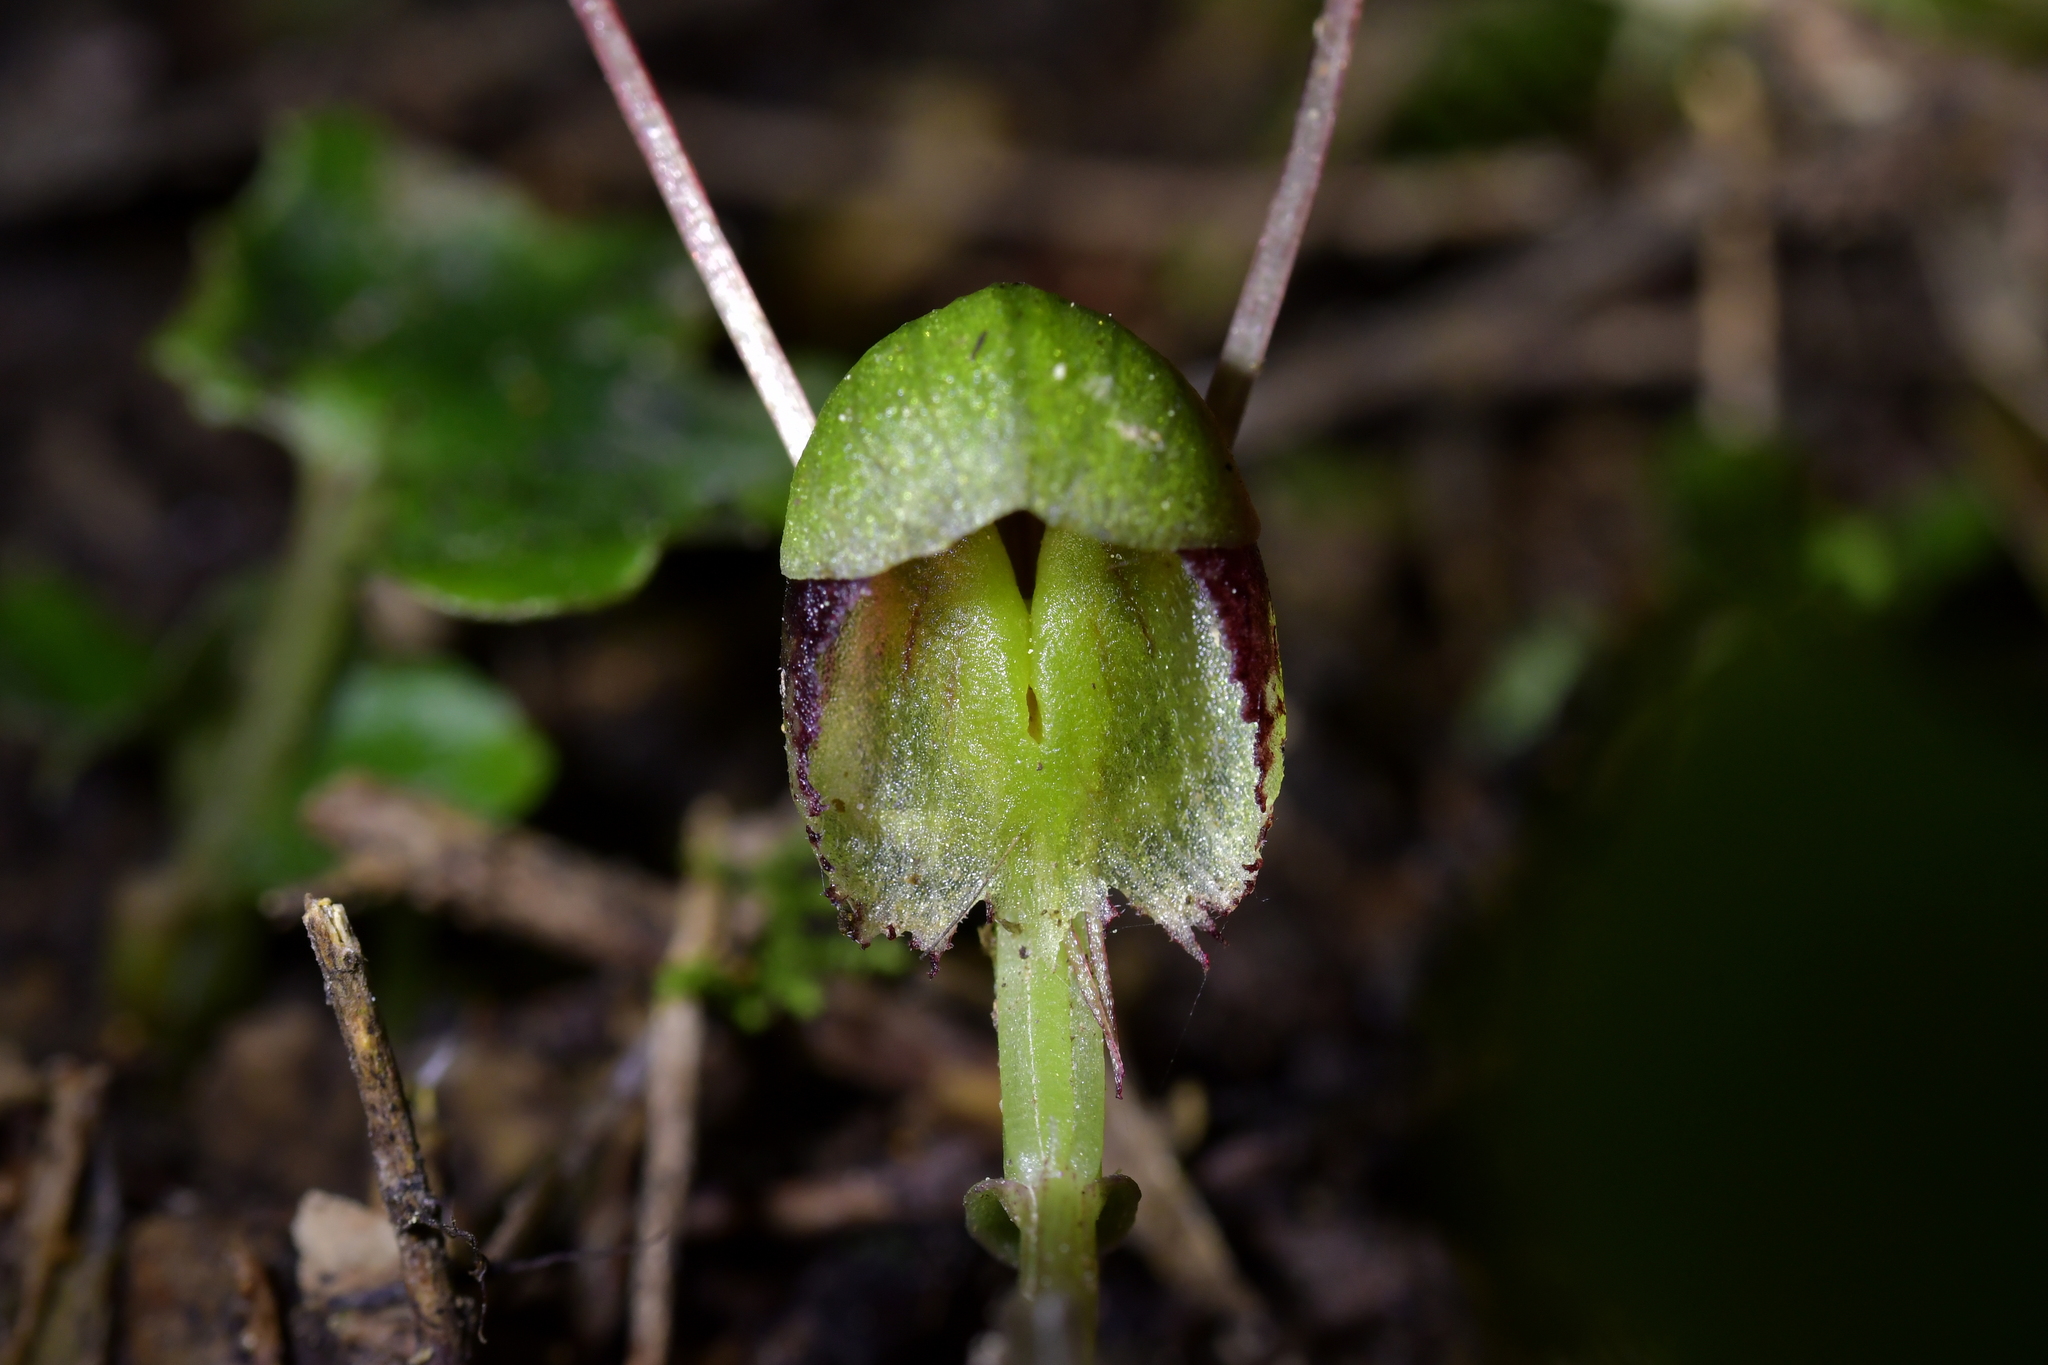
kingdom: Plantae
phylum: Tracheophyta
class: Liliopsida
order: Asparagales
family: Orchidaceae
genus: Corybas
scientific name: Corybas vitreus
